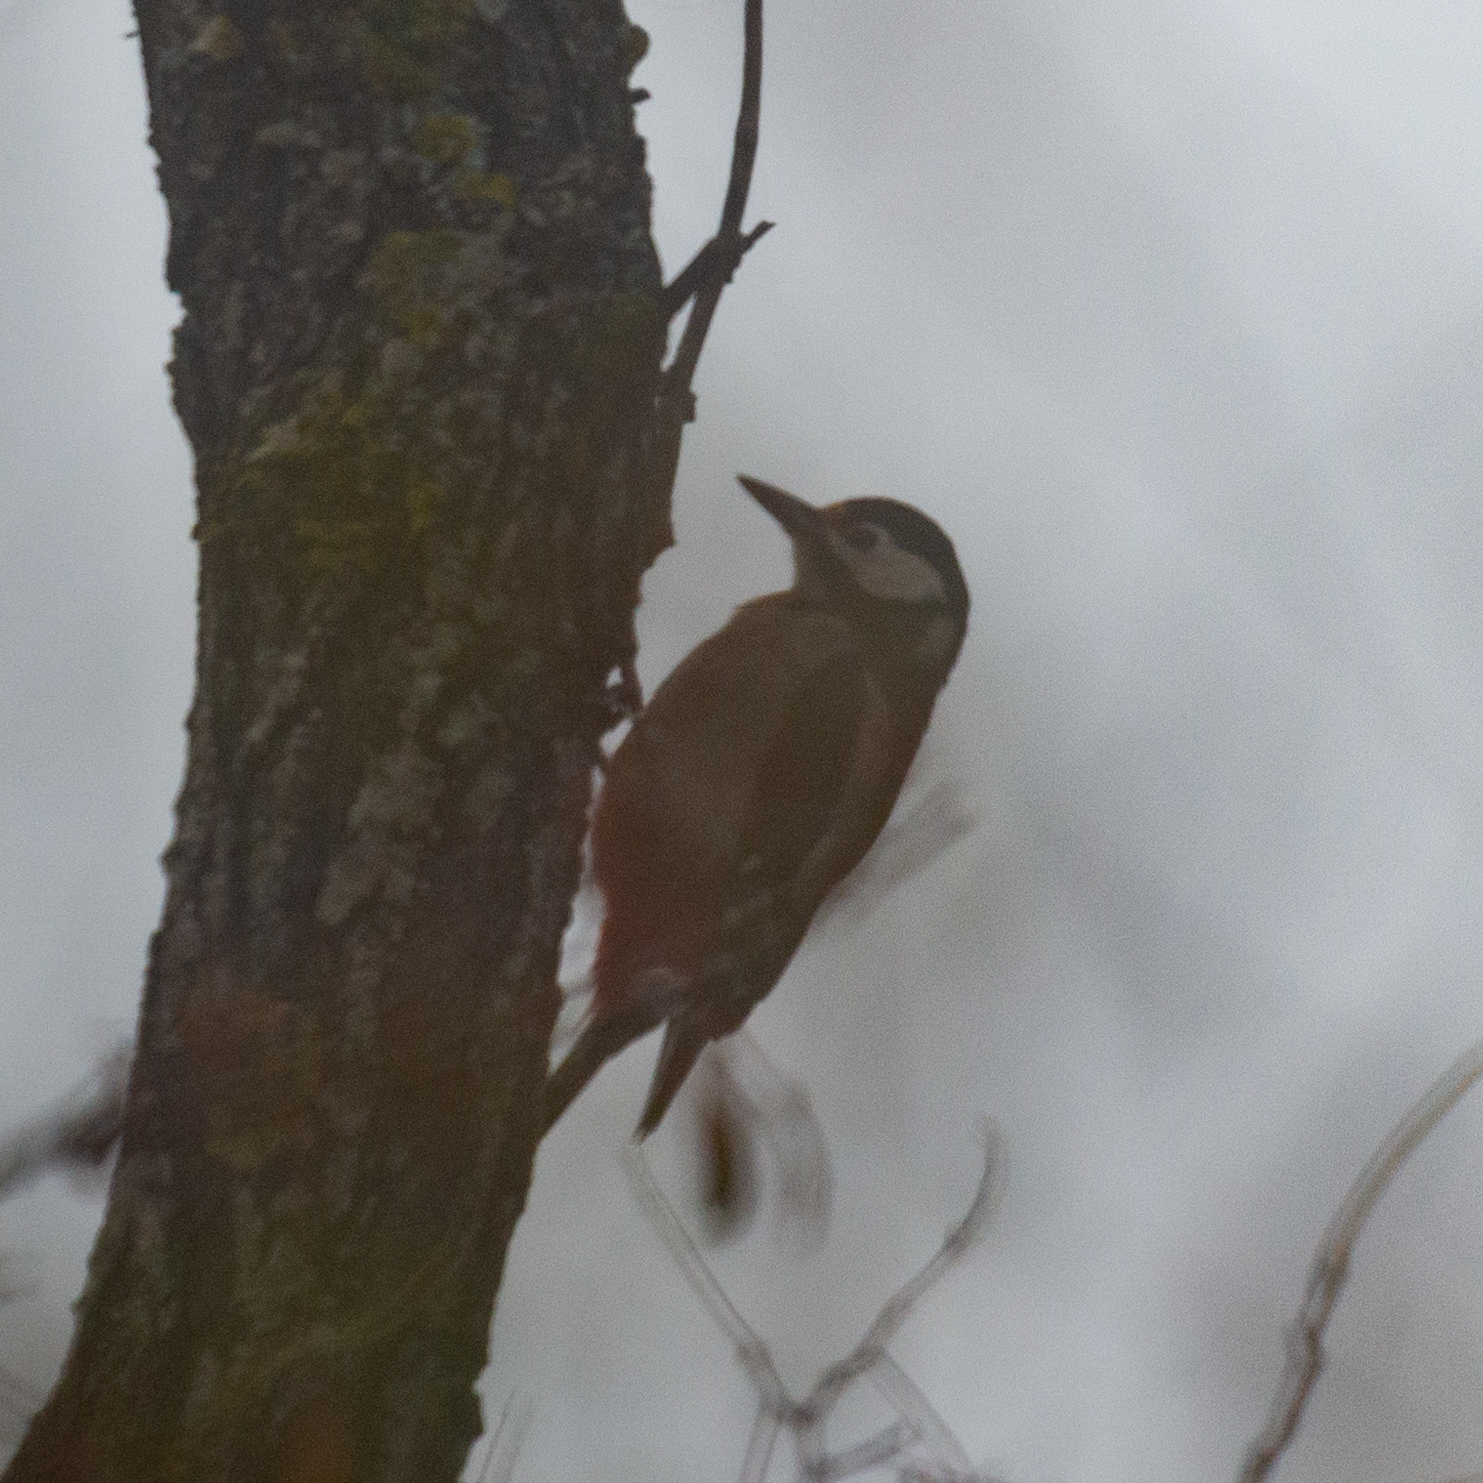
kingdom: Animalia
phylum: Chordata
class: Aves
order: Piciformes
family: Picidae
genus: Dendrocopos
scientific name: Dendrocopos major
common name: Great spotted woodpecker
